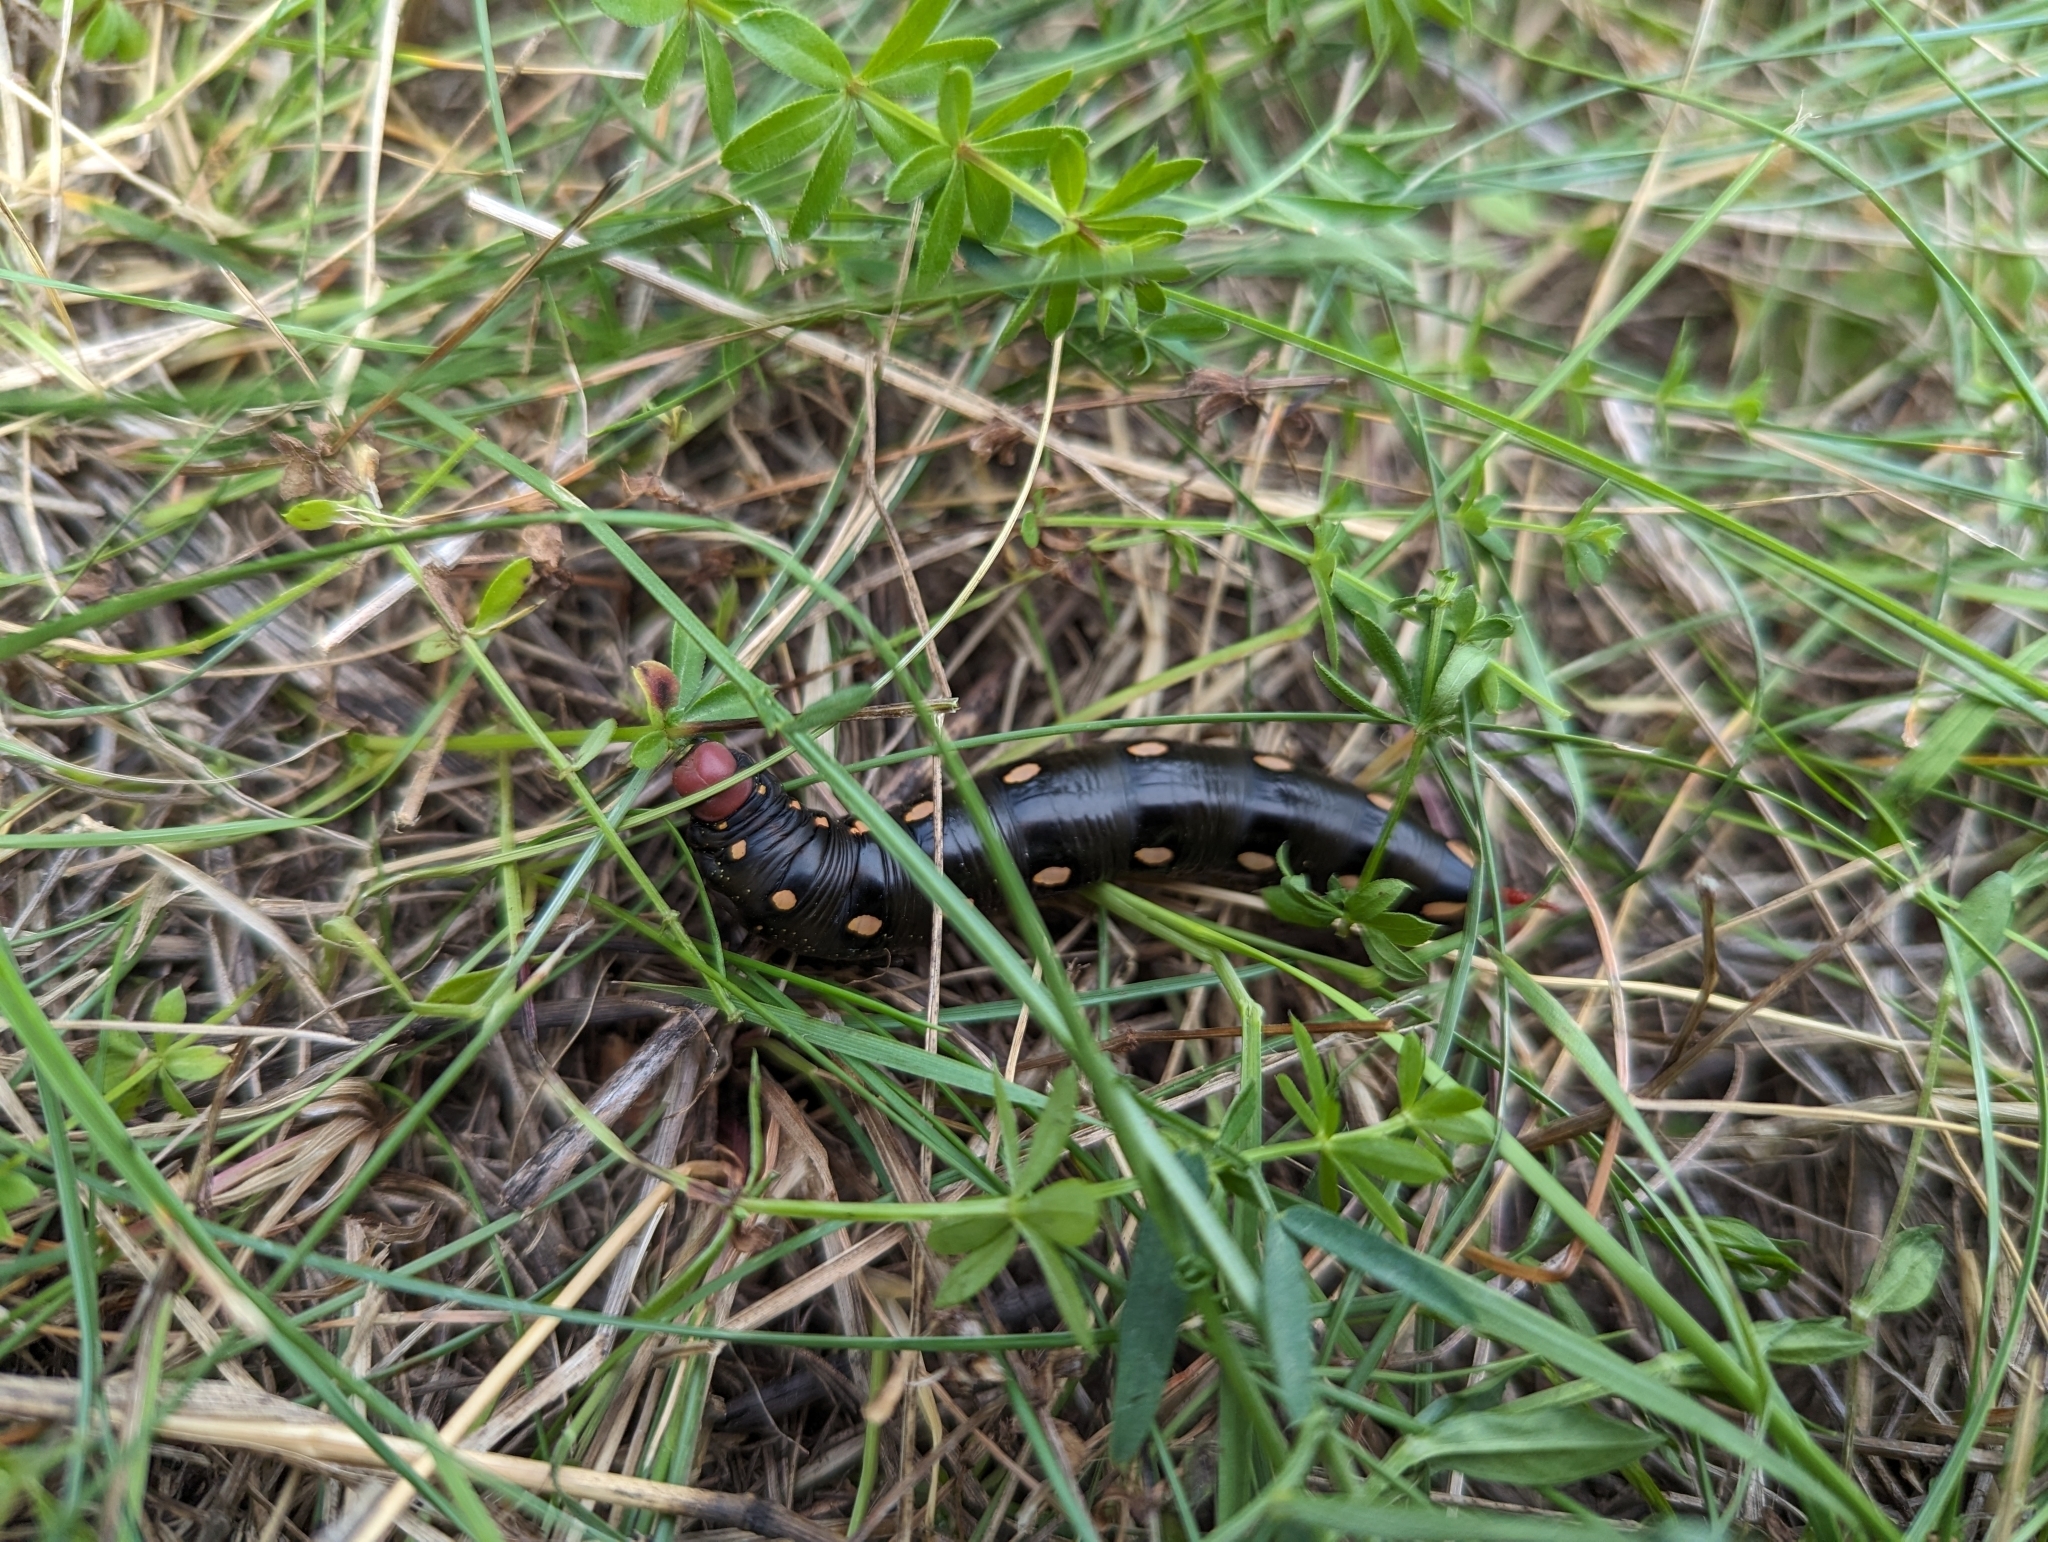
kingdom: Animalia
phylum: Arthropoda
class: Insecta
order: Lepidoptera
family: Sphingidae
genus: Hyles
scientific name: Hyles gallii
